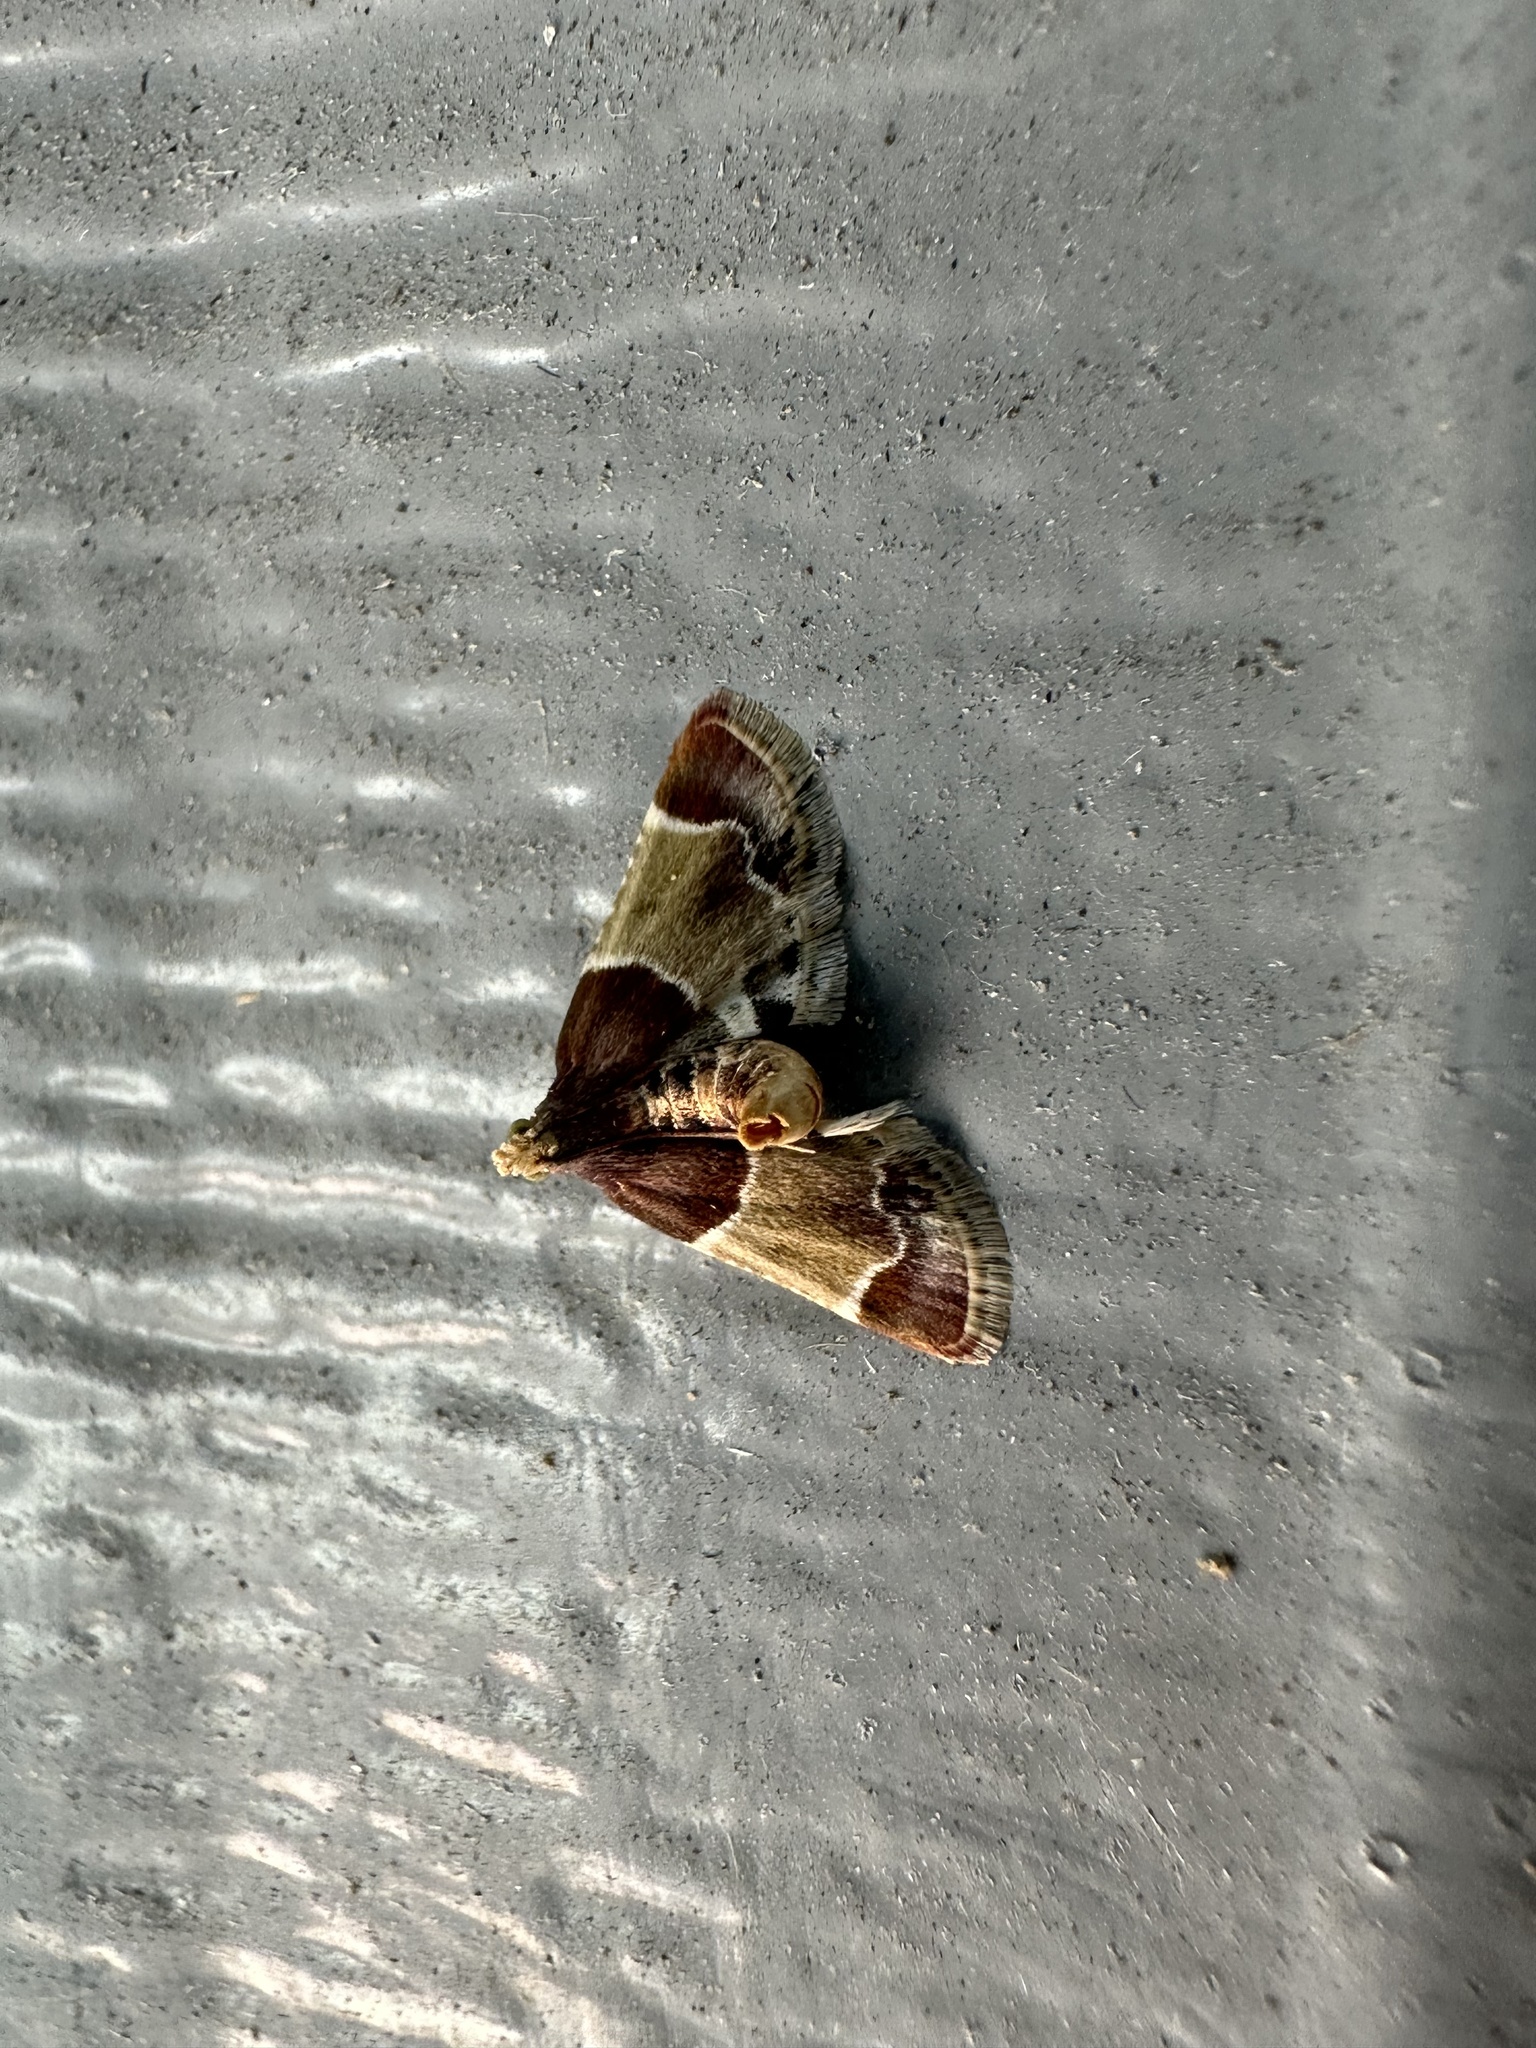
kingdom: Animalia
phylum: Arthropoda
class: Insecta
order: Lepidoptera
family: Pyralidae
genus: Pyralis
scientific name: Pyralis farinalis
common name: Meal moth
